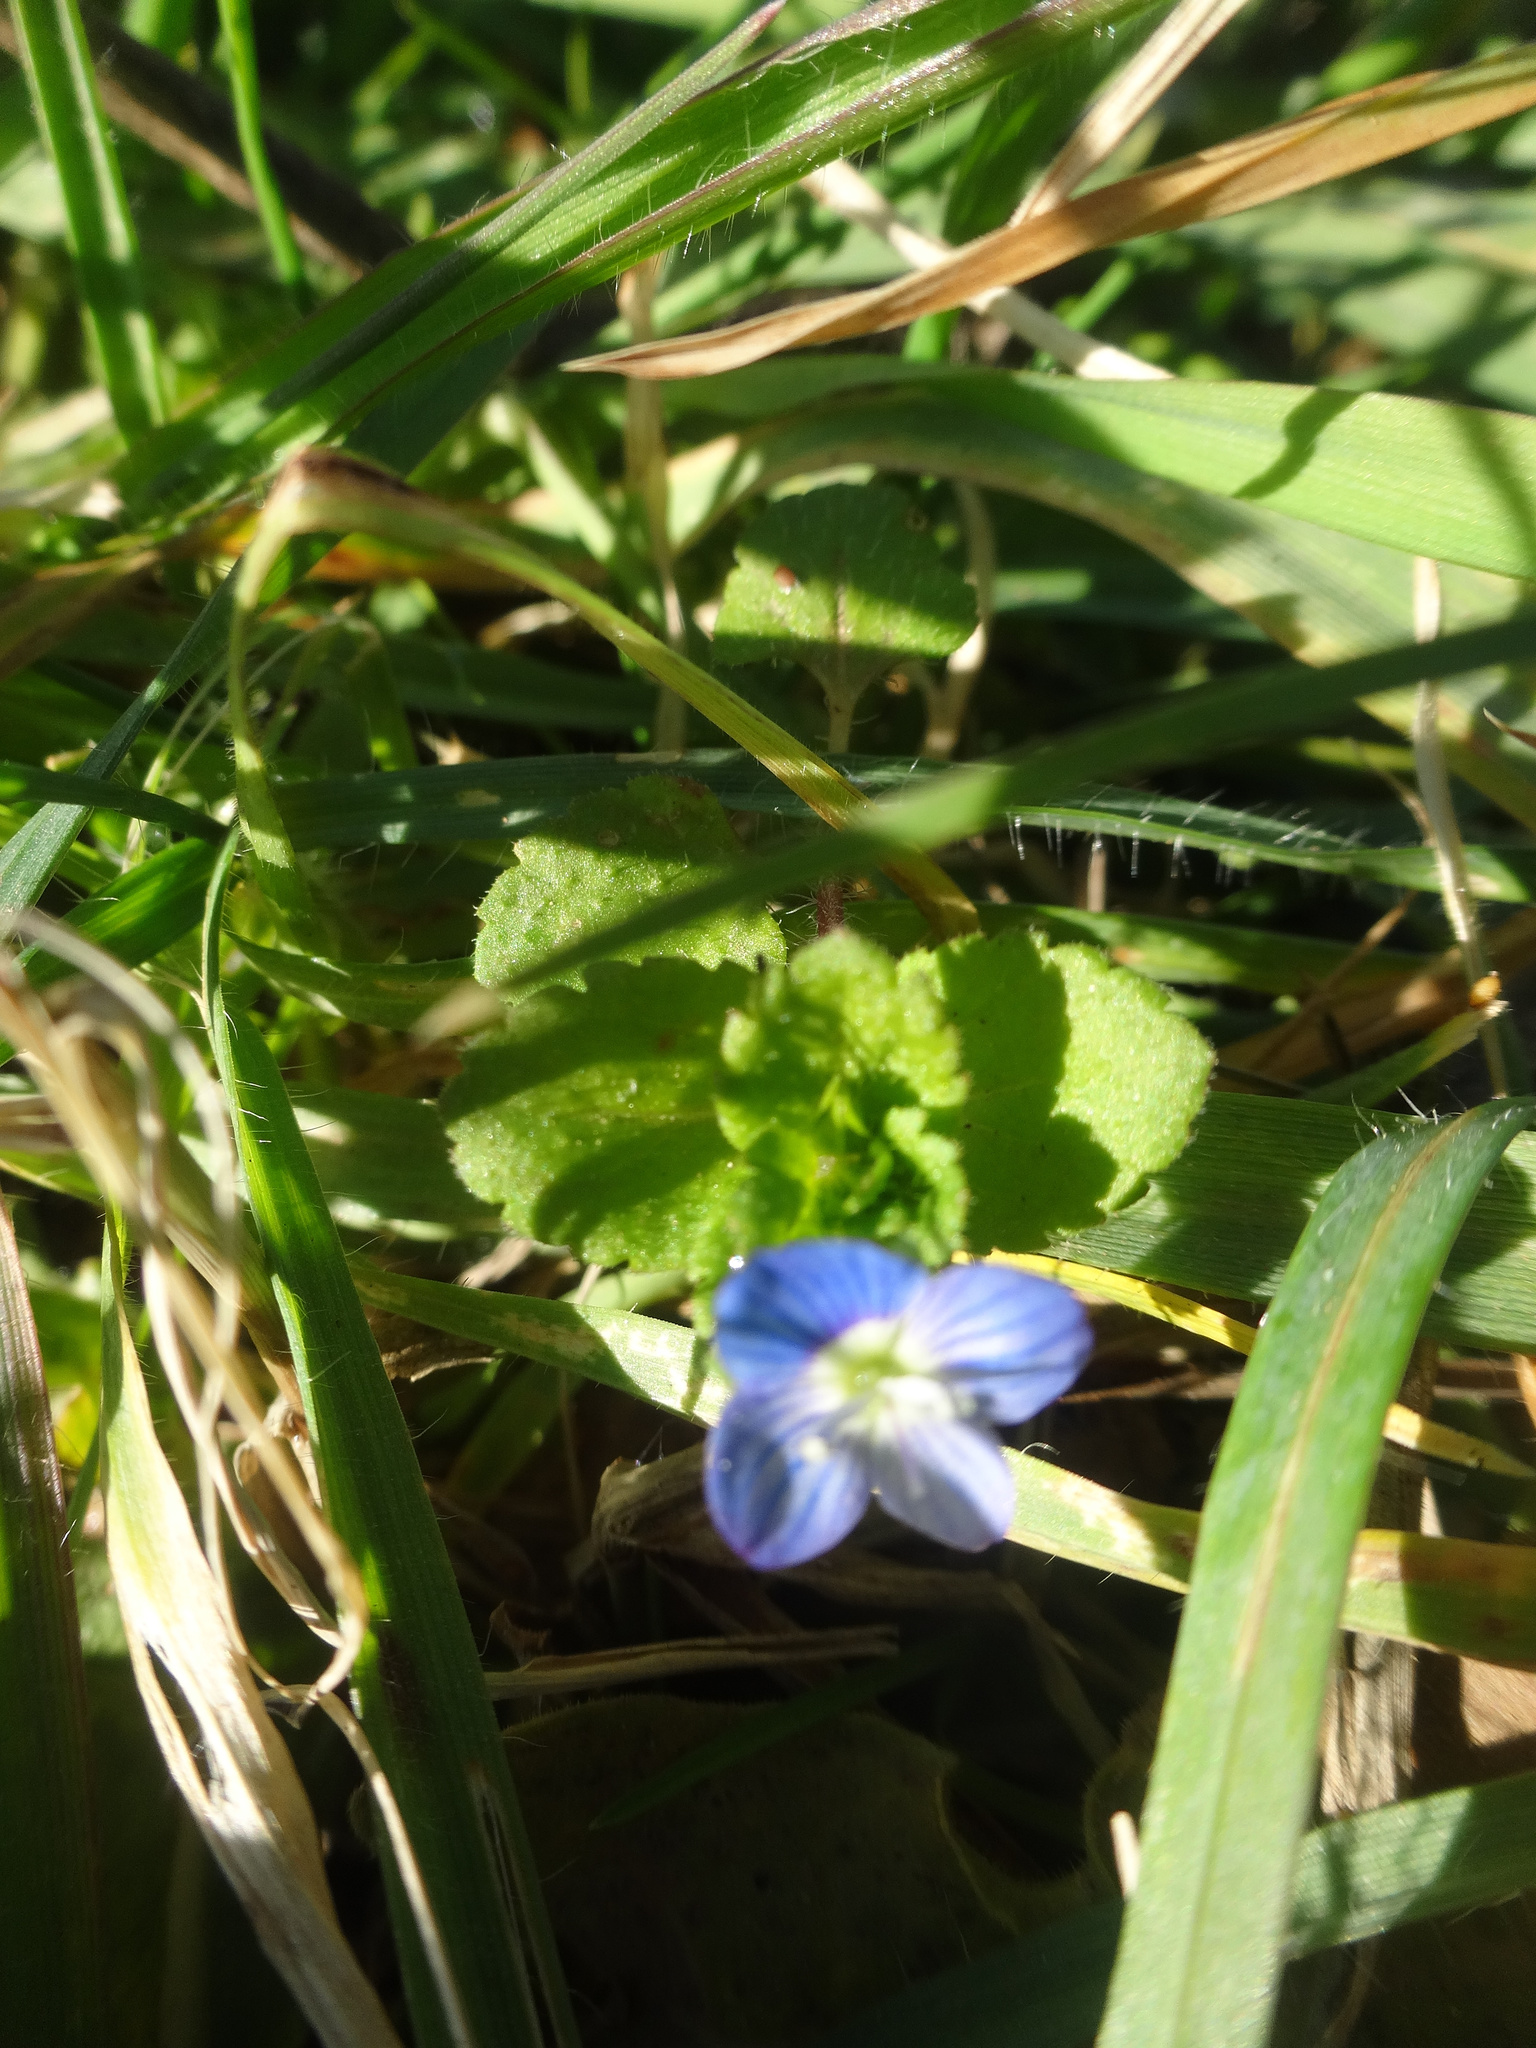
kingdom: Plantae
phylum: Tracheophyta
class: Magnoliopsida
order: Lamiales
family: Plantaginaceae
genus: Veronica
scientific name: Veronica persica
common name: Common field-speedwell
